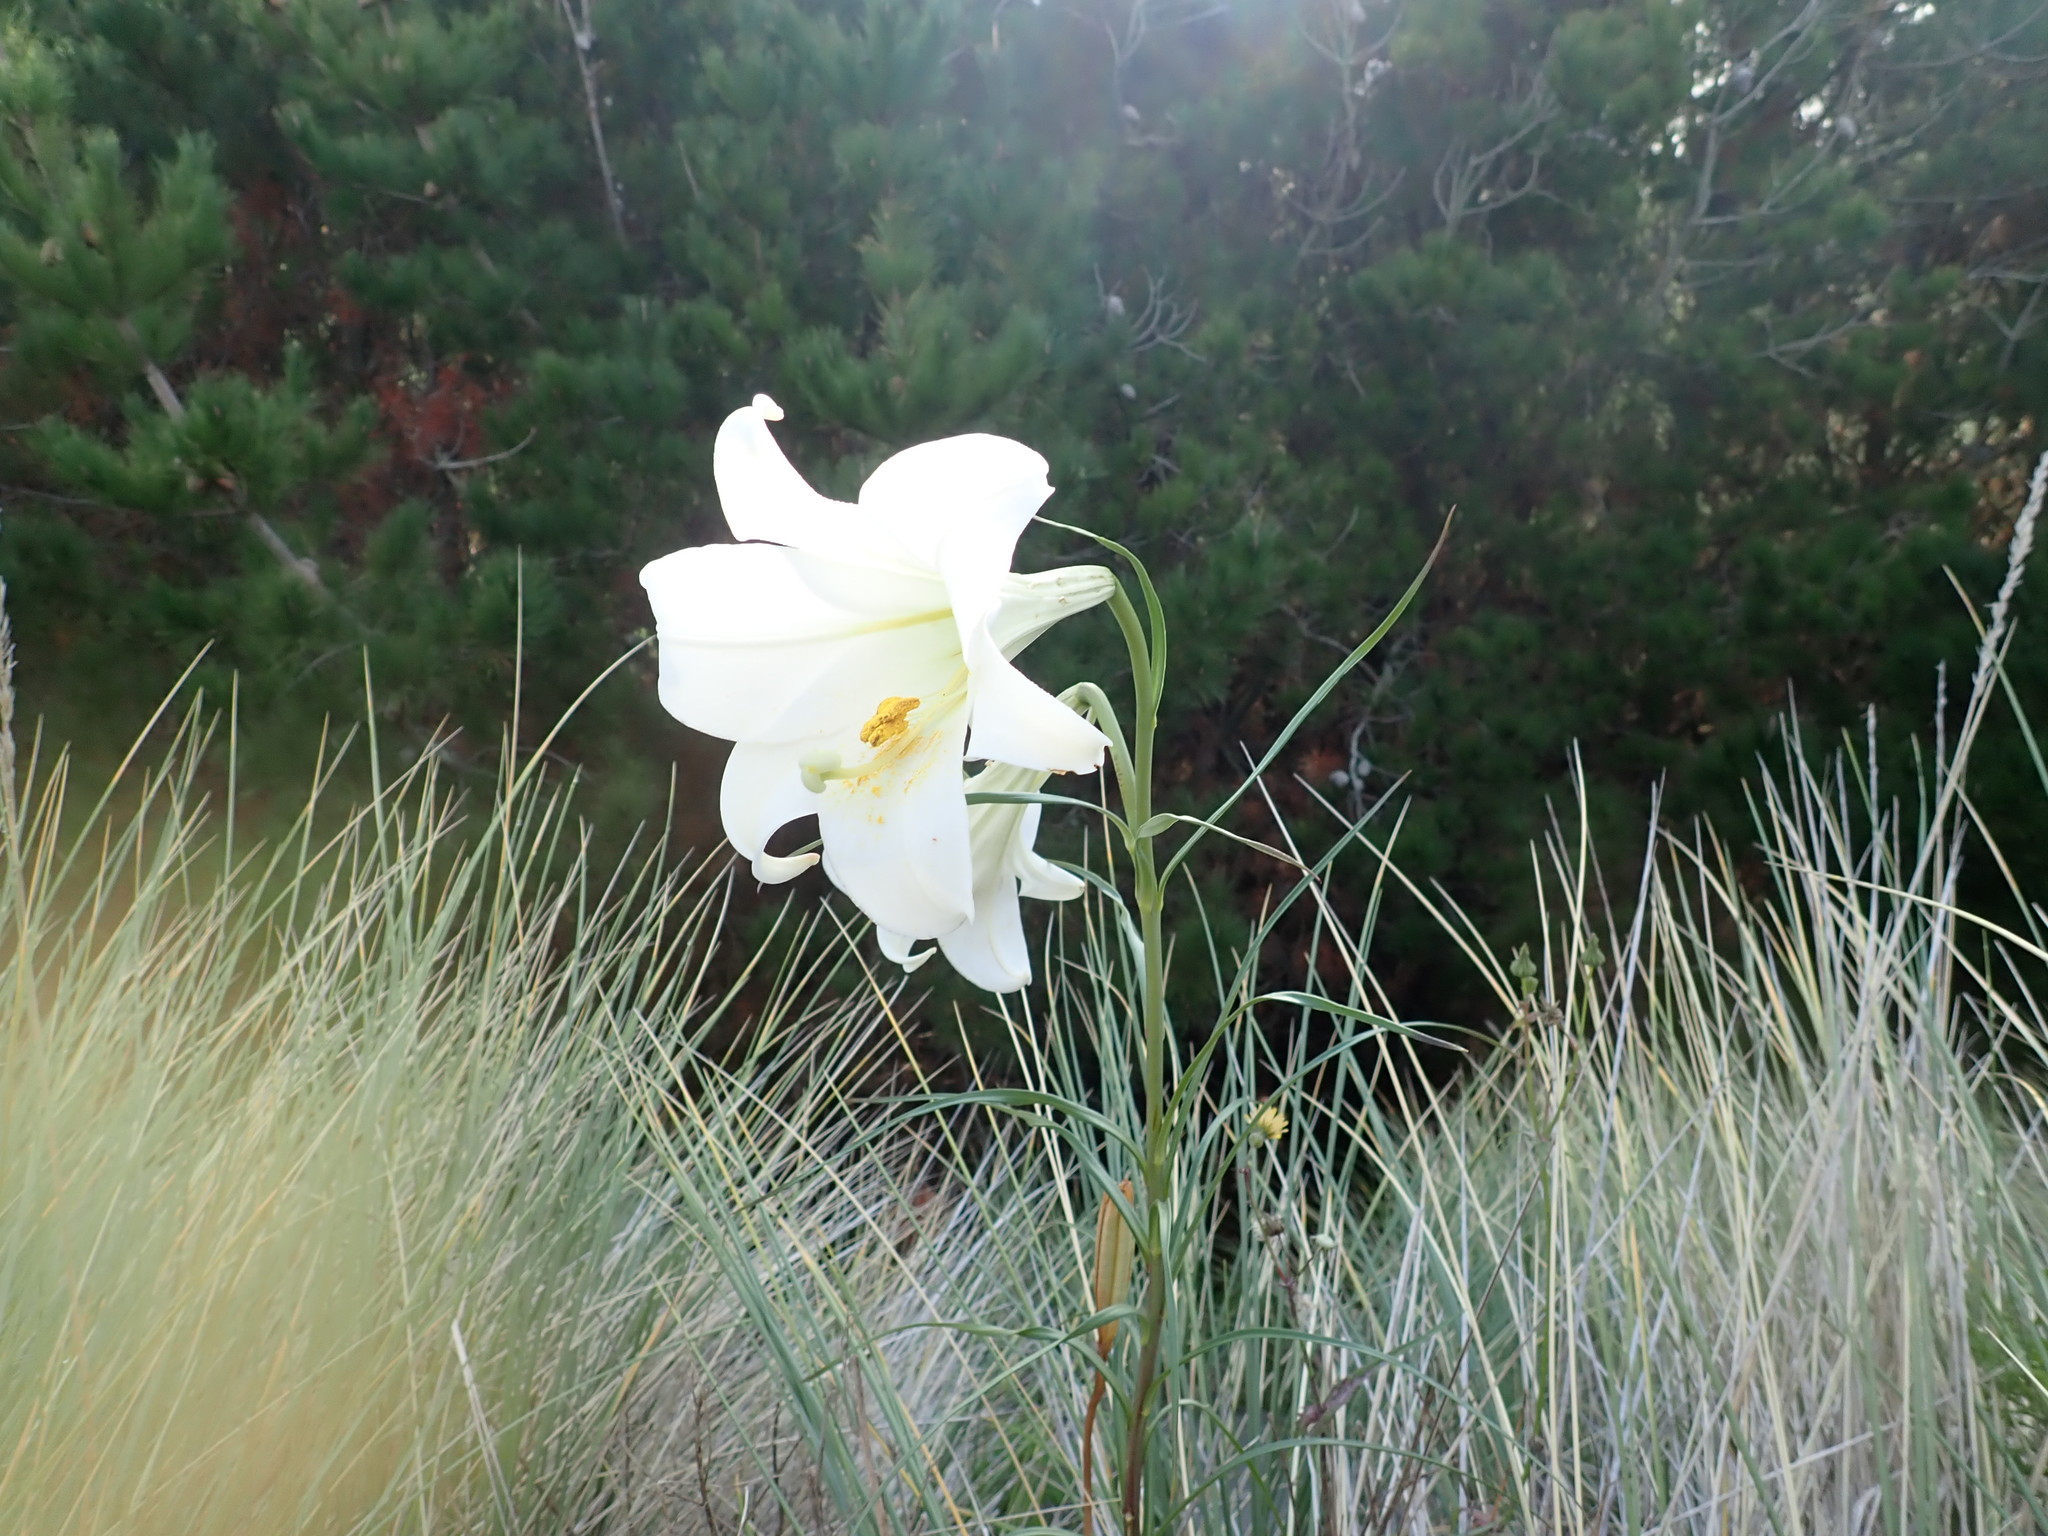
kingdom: Plantae
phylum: Tracheophyta
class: Liliopsida
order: Liliales
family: Liliaceae
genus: Lilium
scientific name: Lilium formosanum
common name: Formosa lily
